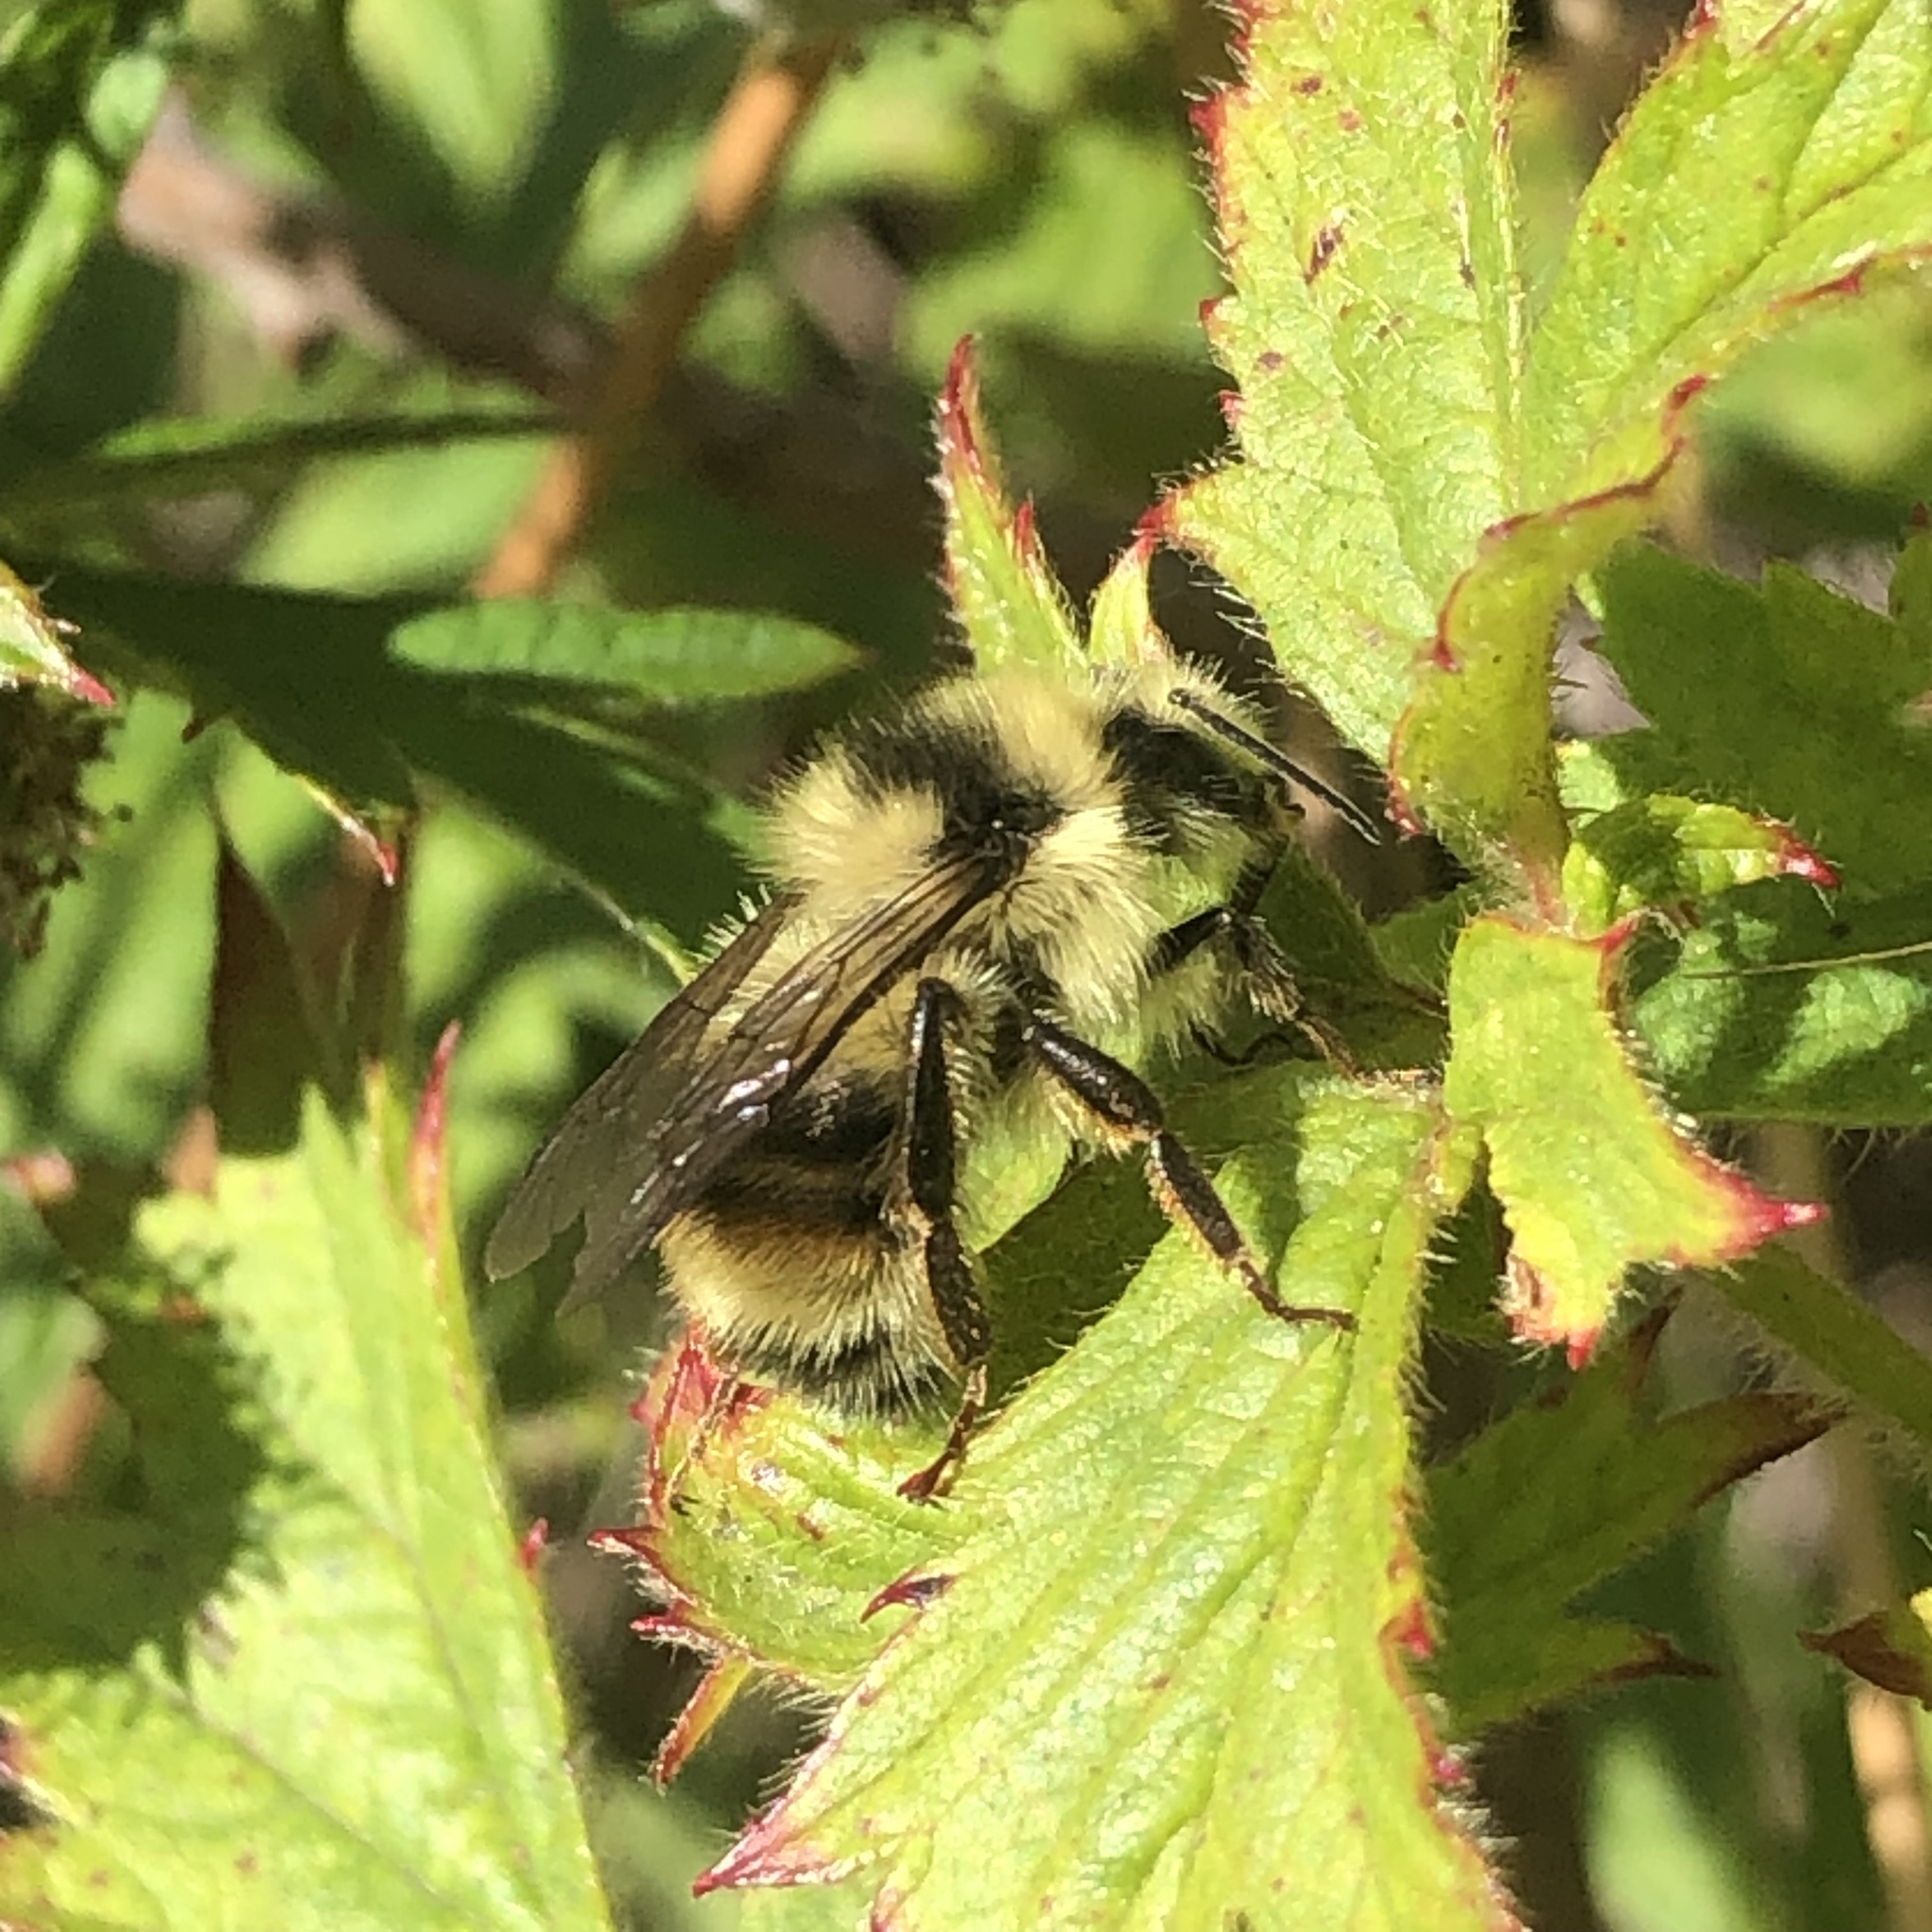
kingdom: Animalia
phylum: Arthropoda
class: Insecta
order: Hymenoptera
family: Apidae
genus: Bombus
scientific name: Bombus vancouverensis
